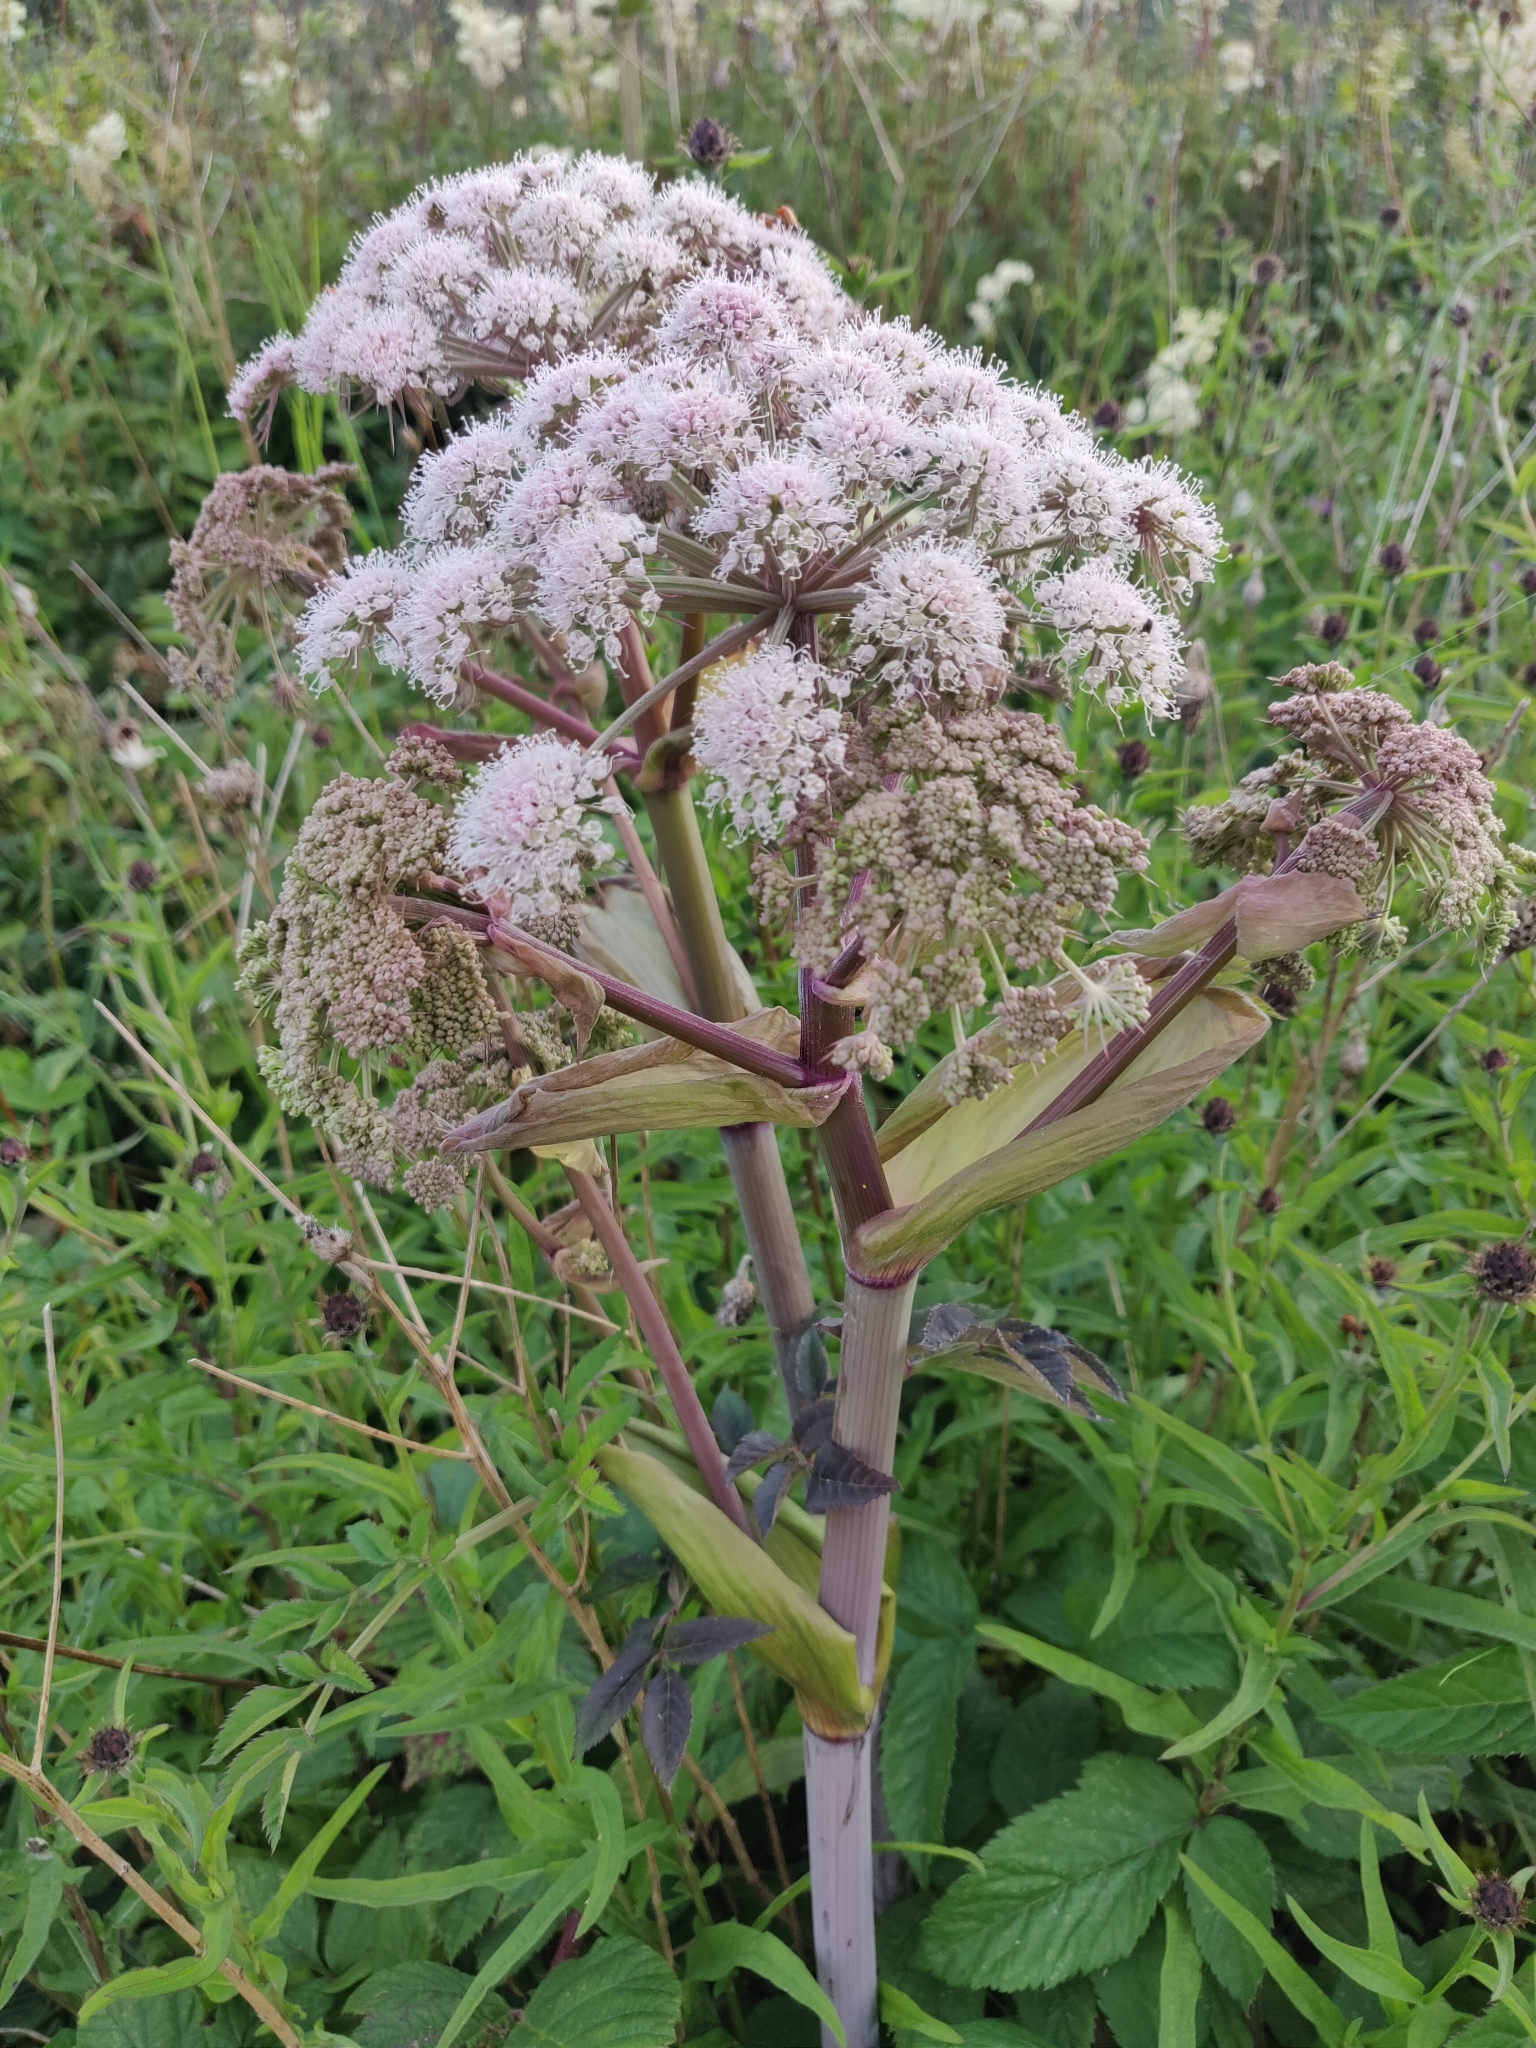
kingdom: Plantae
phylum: Tracheophyta
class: Magnoliopsida
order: Apiales
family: Apiaceae
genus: Angelica
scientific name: Angelica sylvestris
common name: Wild angelica
